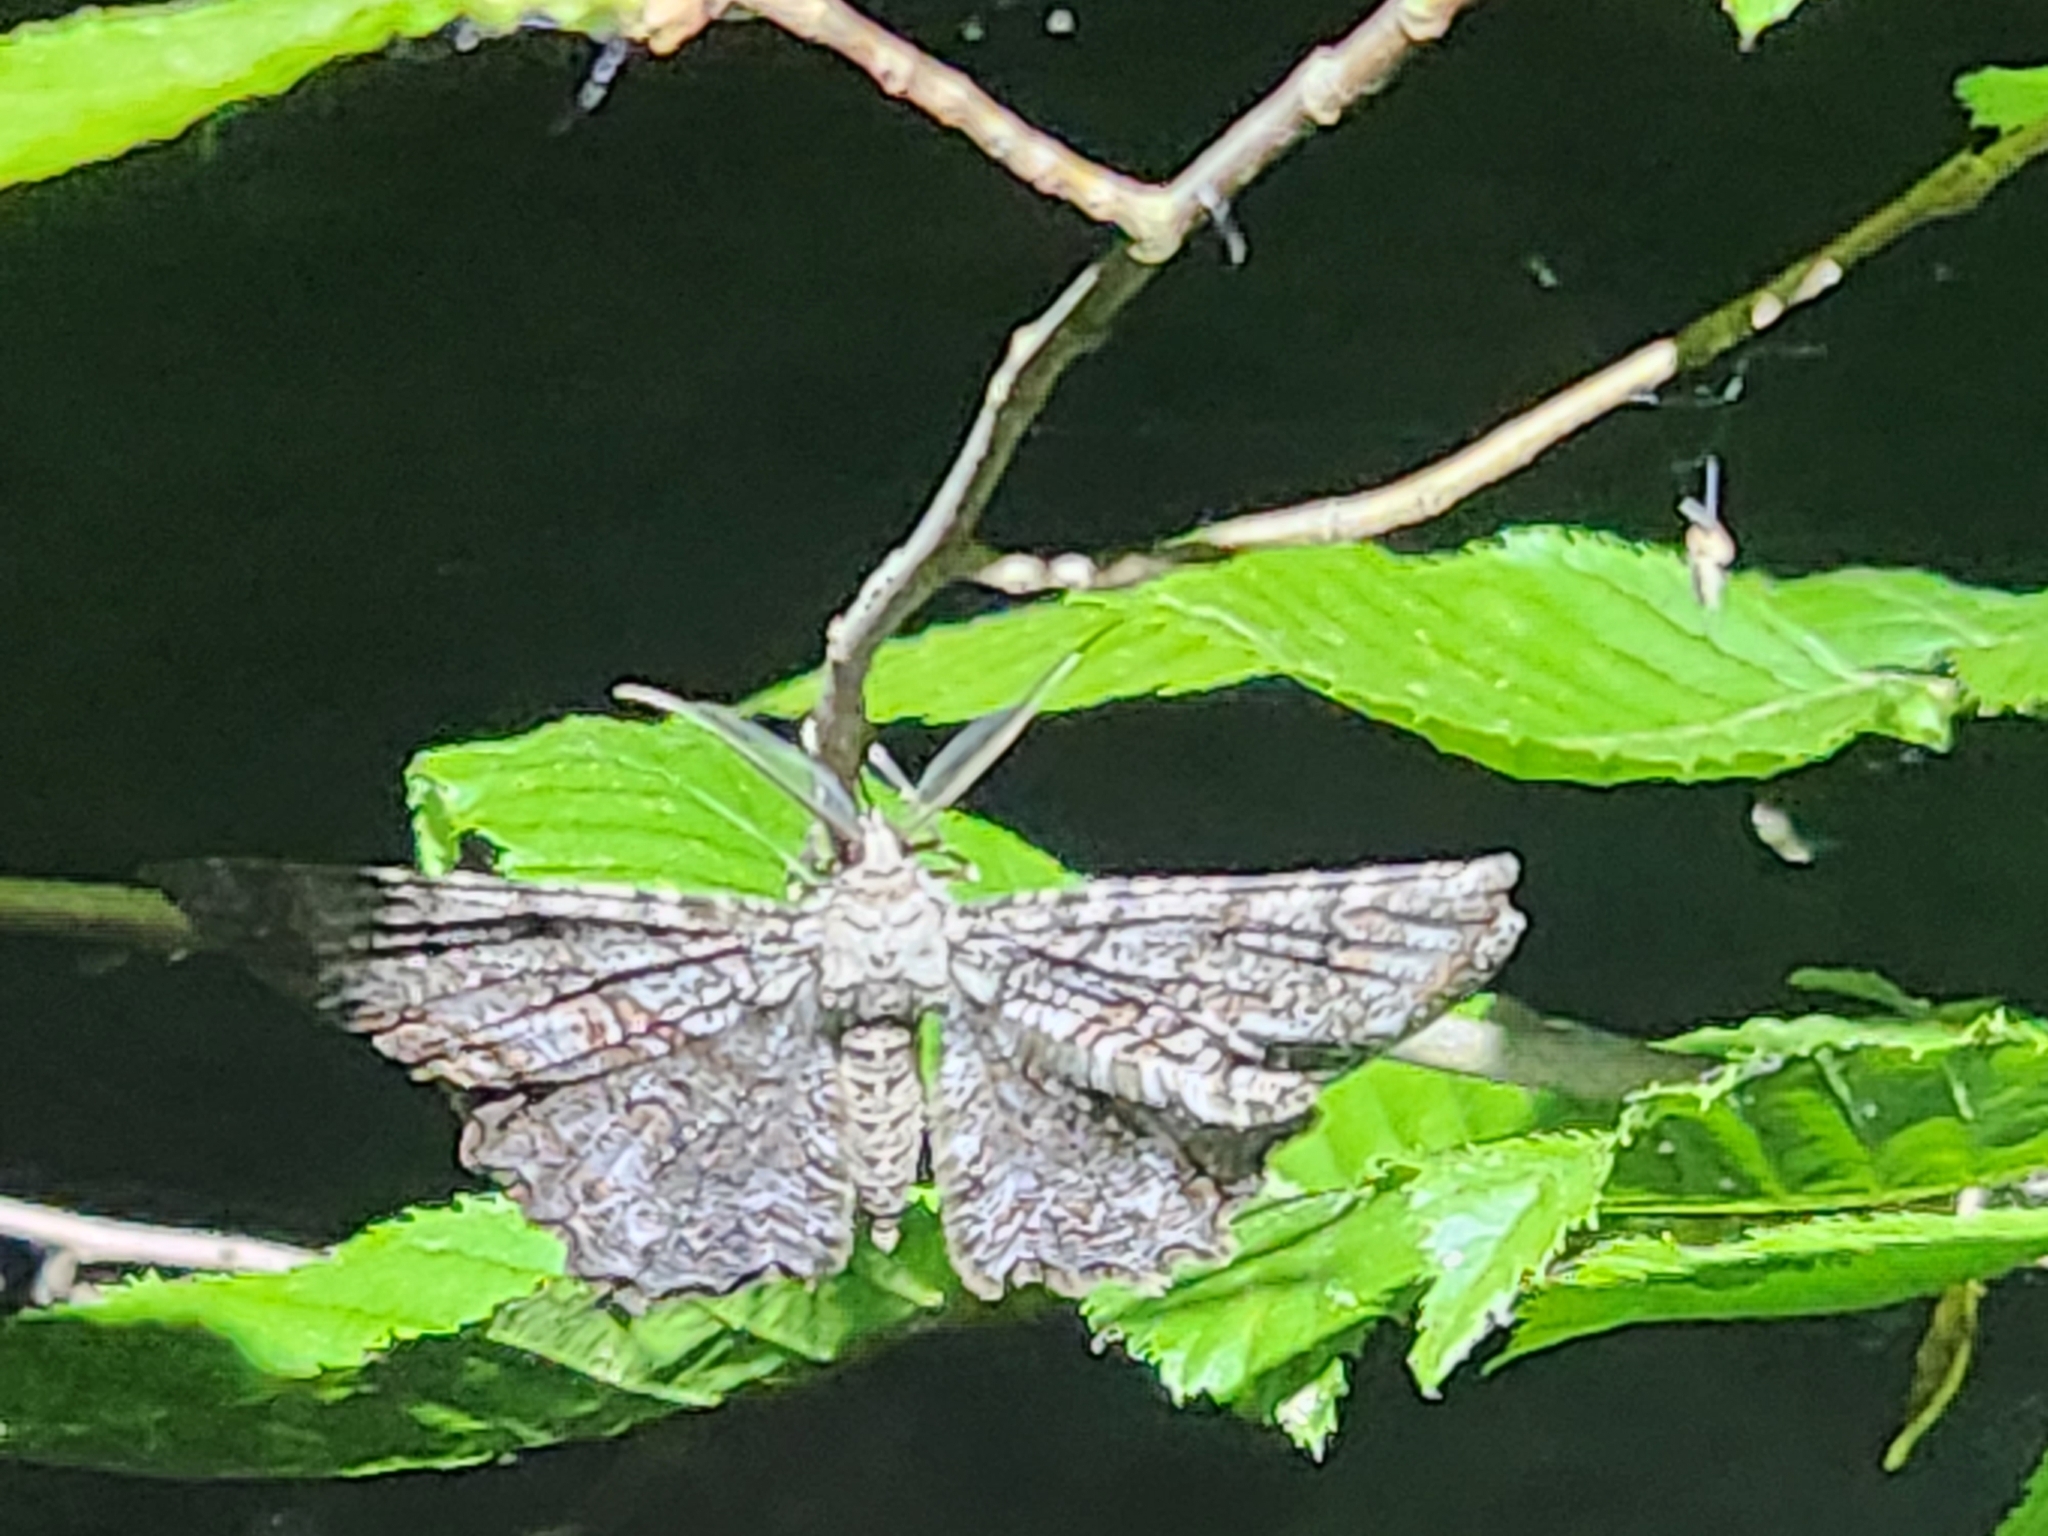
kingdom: Animalia
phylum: Arthropoda
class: Insecta
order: Lepidoptera
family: Geometridae
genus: Epimecis
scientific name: Epimecis hortaria
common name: Tulip-tree beauty
